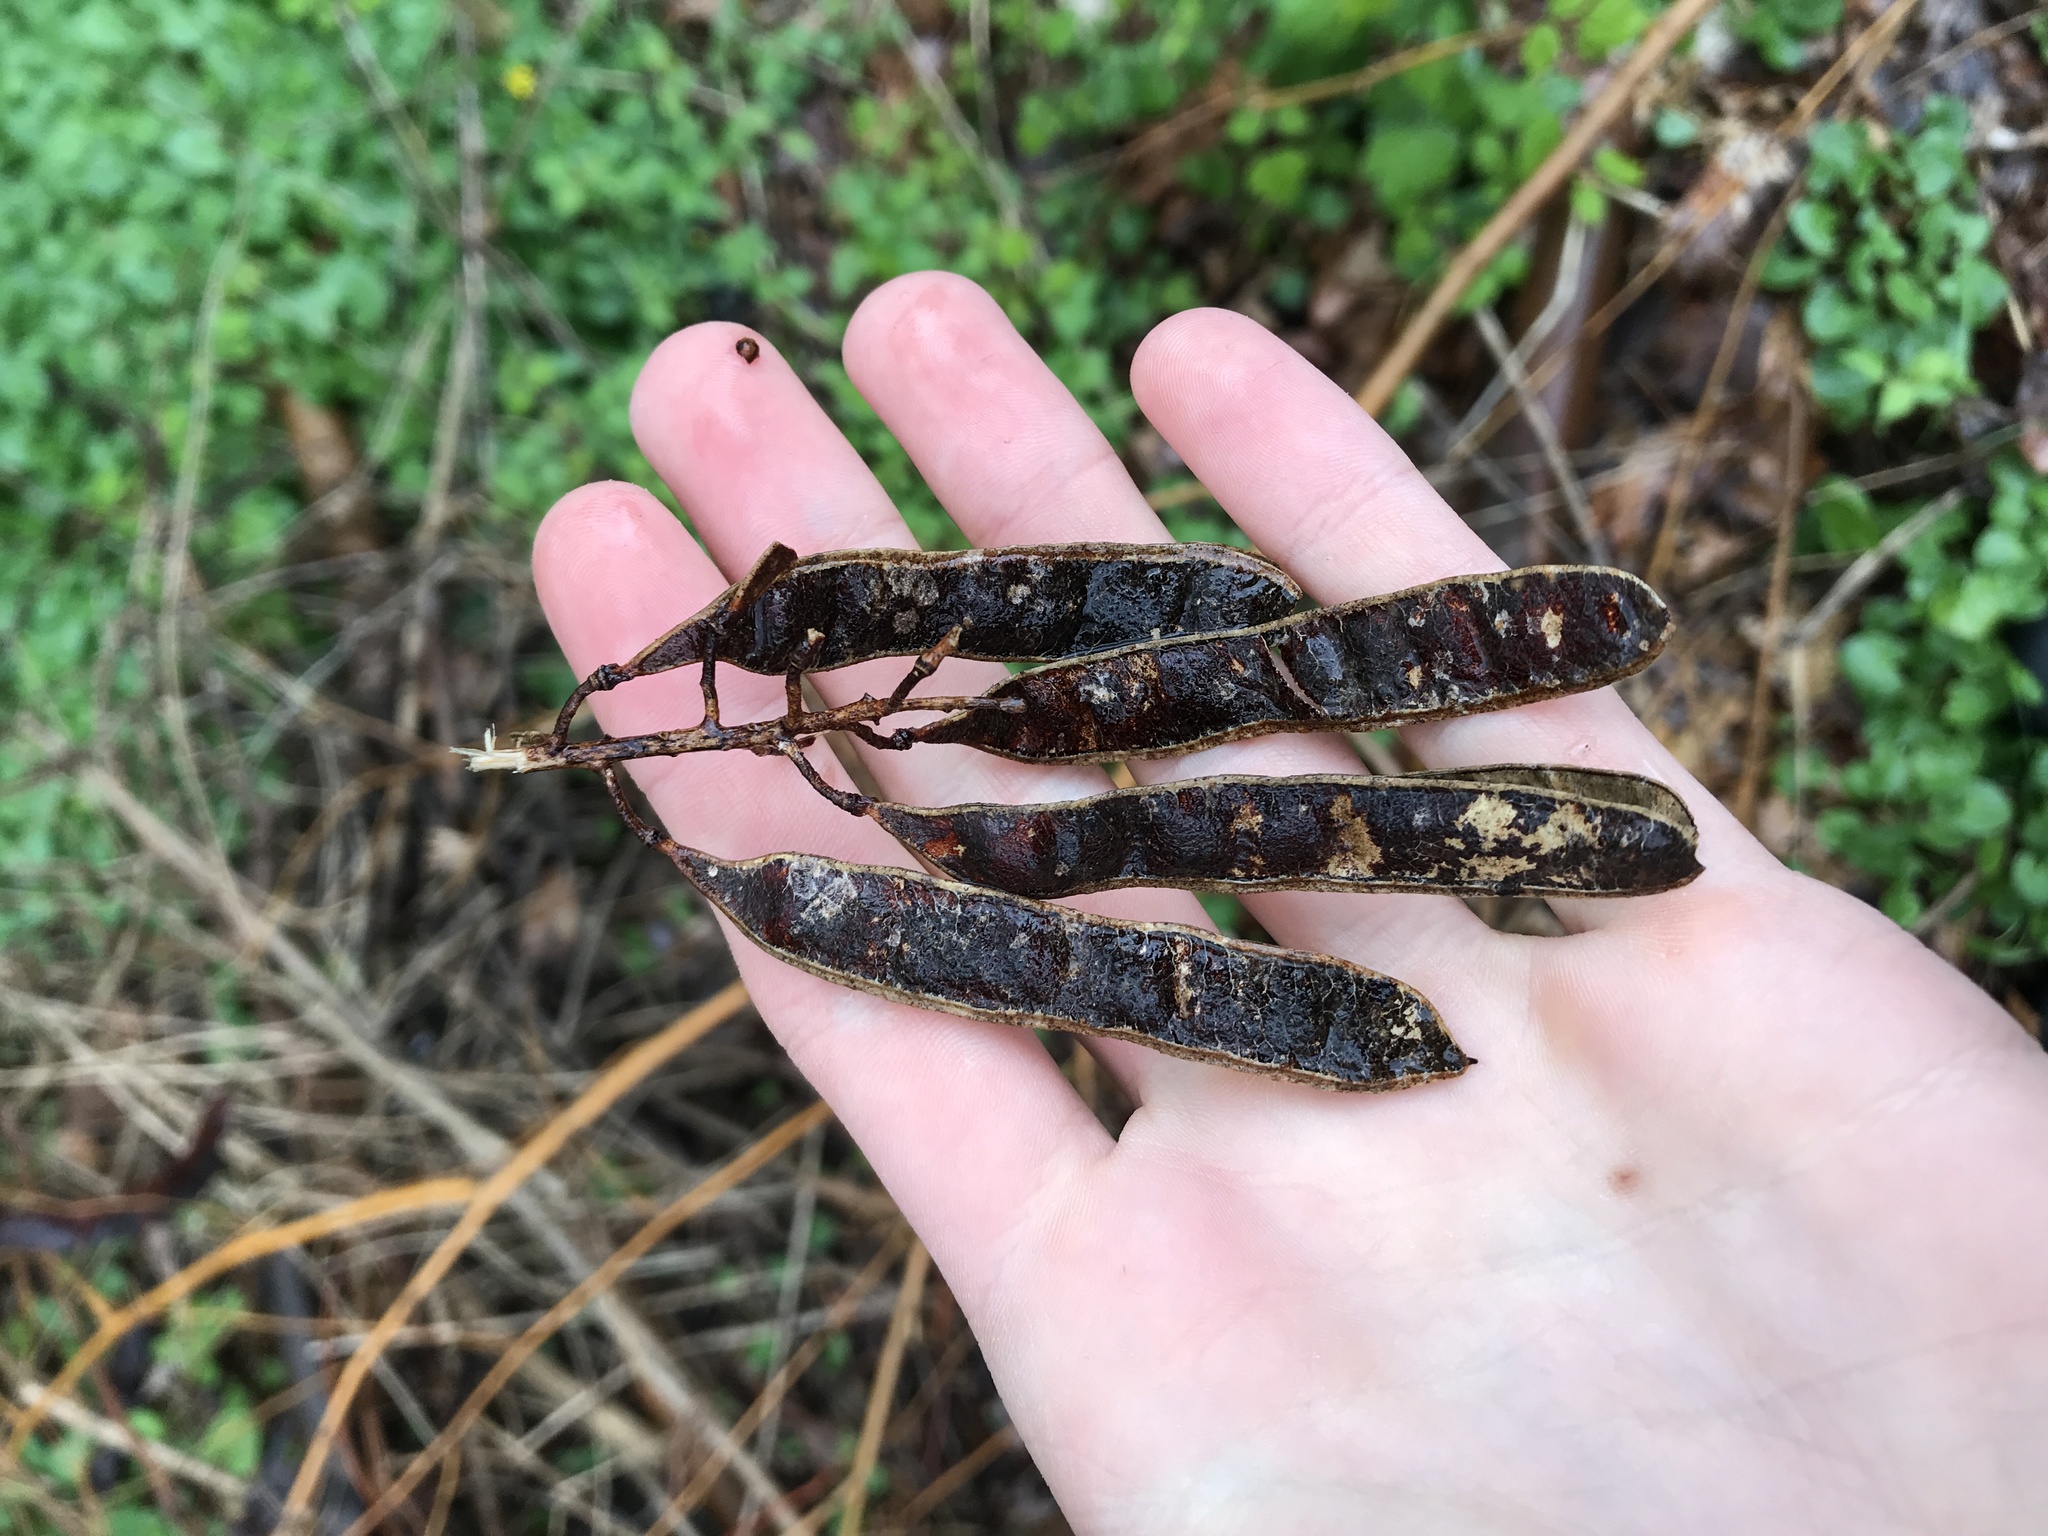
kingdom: Plantae
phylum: Tracheophyta
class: Magnoliopsida
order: Fabales
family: Fabaceae
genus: Robinia
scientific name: Robinia pseudoacacia
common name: Black locust
